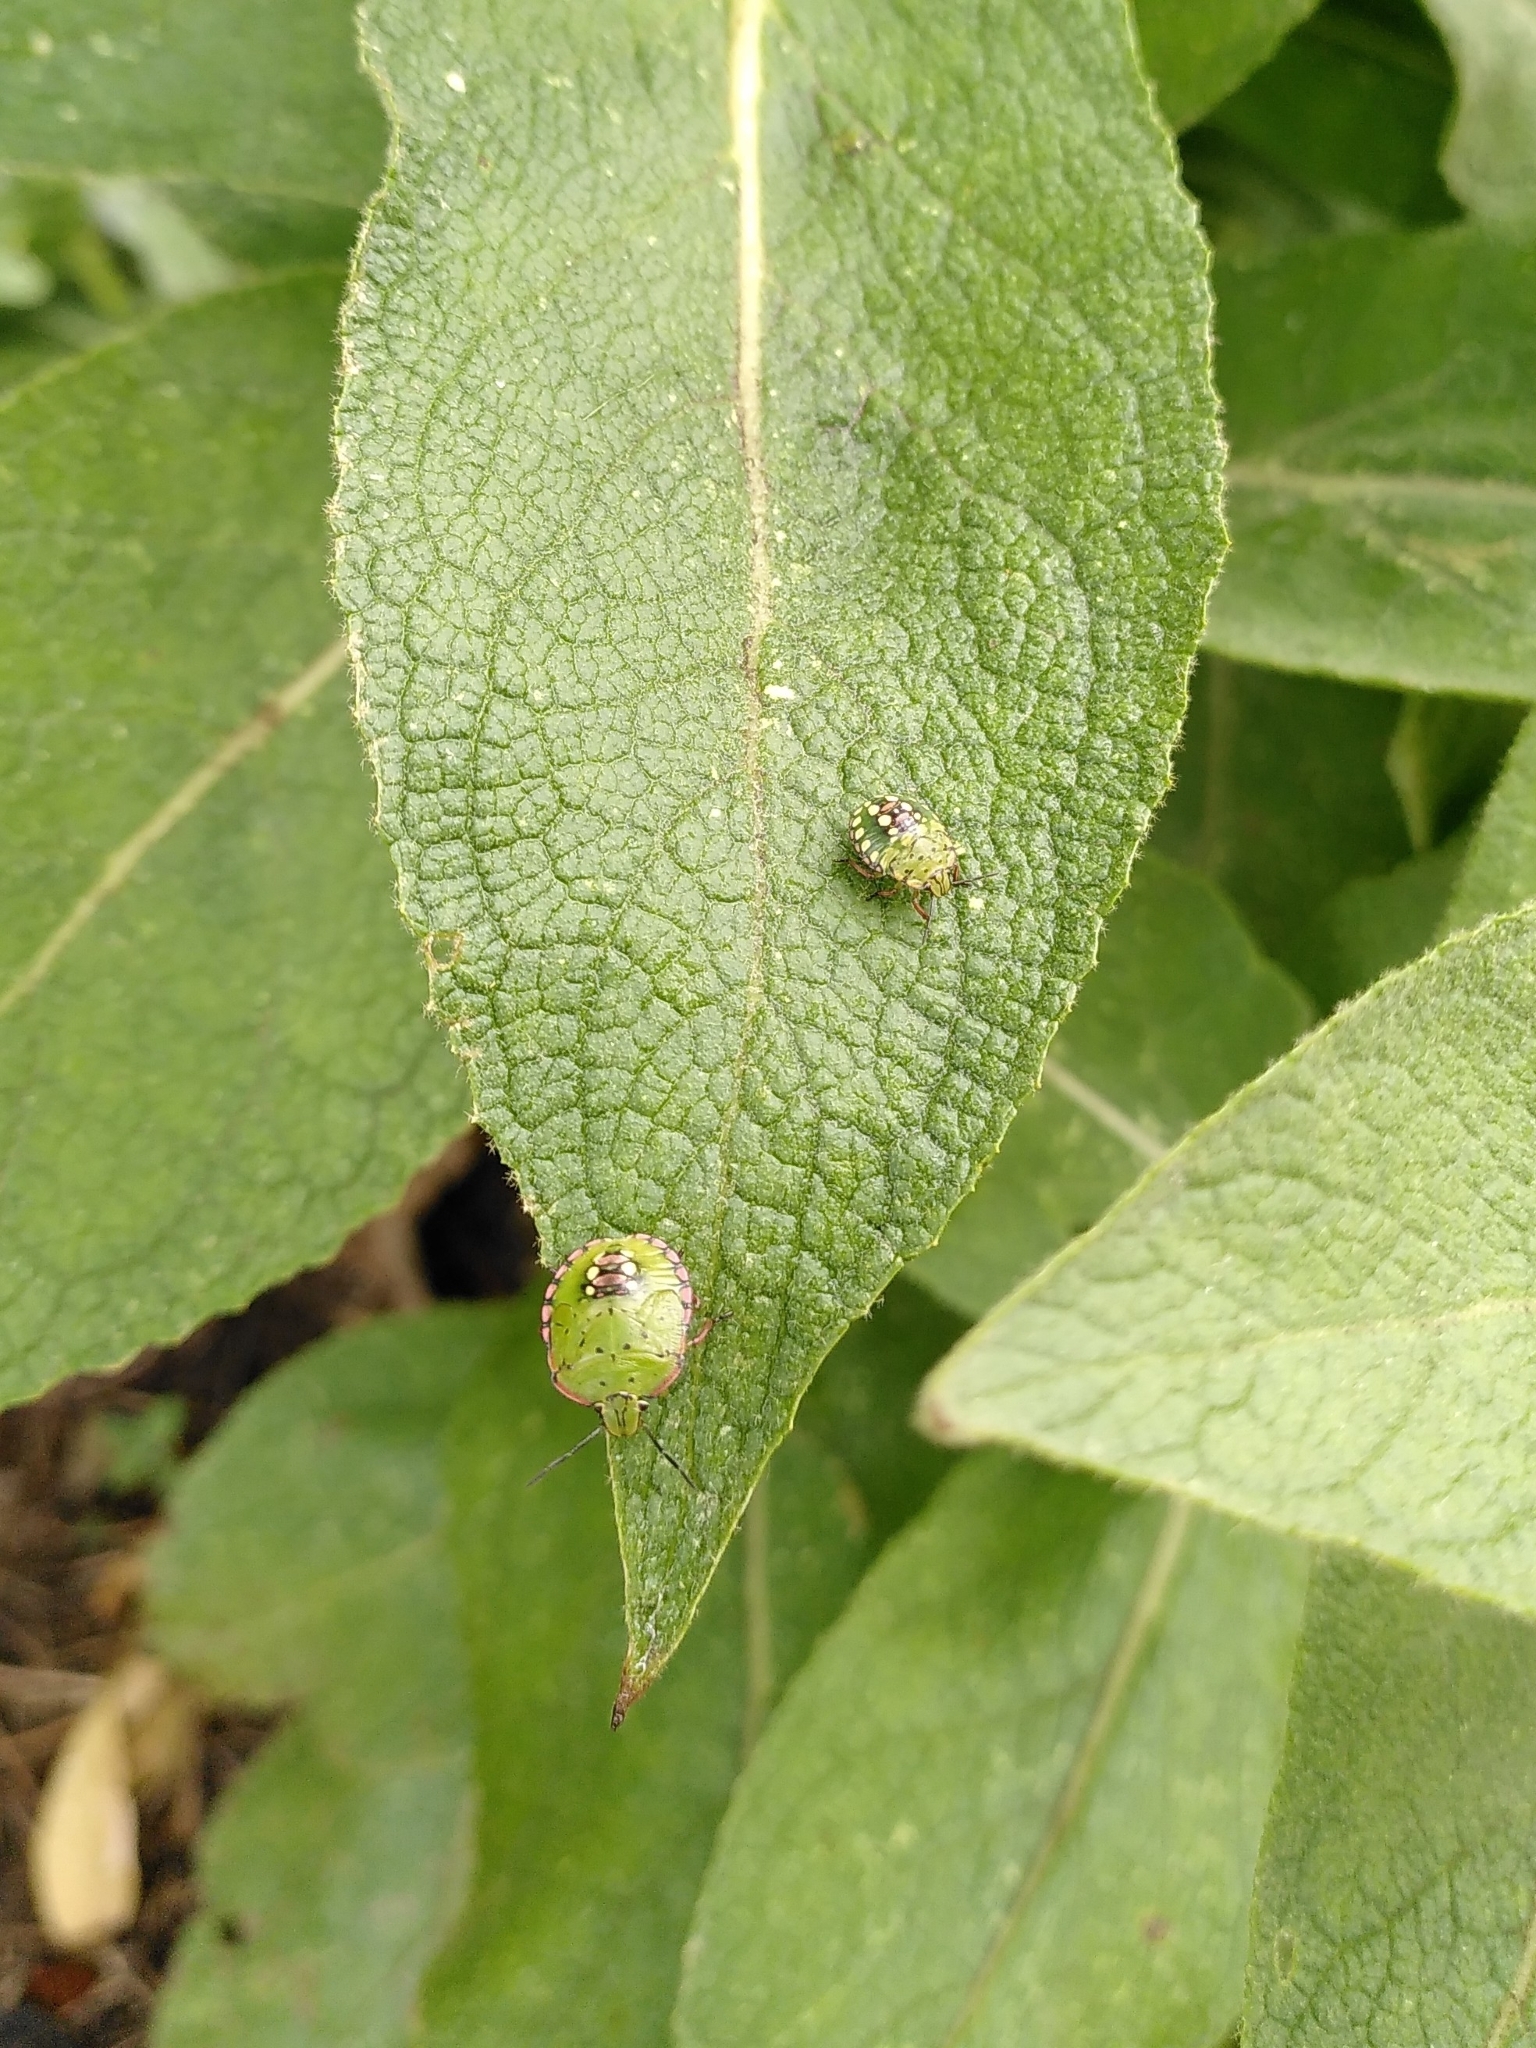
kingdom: Animalia
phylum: Arthropoda
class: Insecta
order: Hemiptera
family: Pentatomidae
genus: Nezara
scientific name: Nezara viridula
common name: Southern green stink bug
